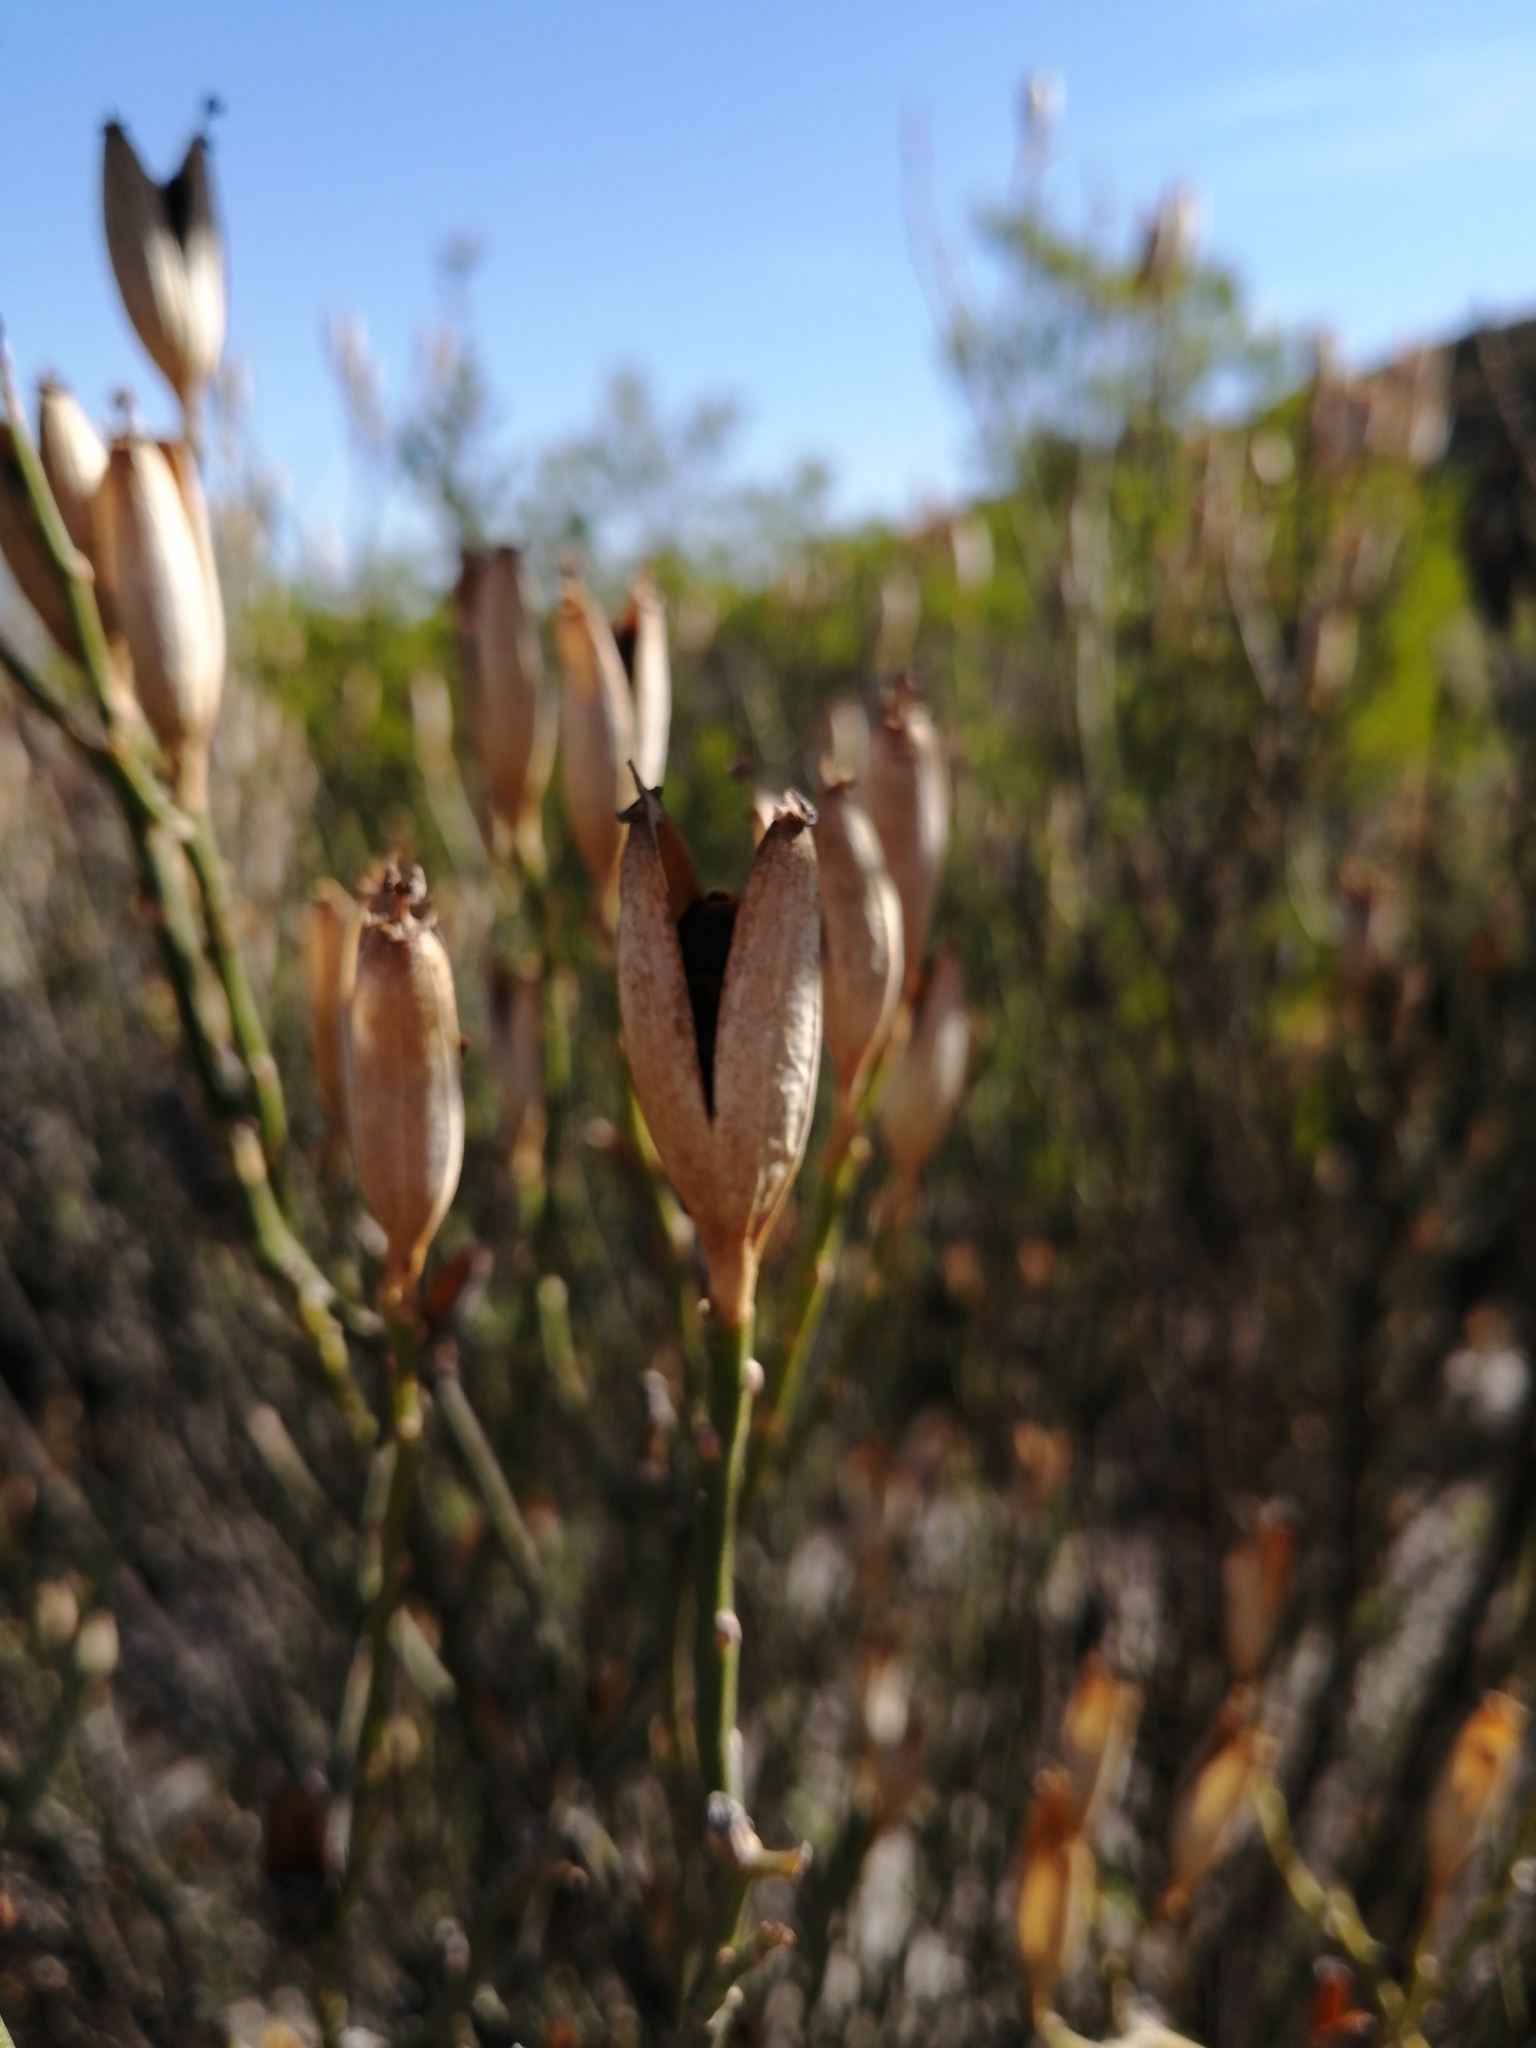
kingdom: Plantae
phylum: Tracheophyta
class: Magnoliopsida
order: Solanales
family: Montiniaceae
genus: Montinia
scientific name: Montinia caryophyllacea
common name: Wild clove-bush
